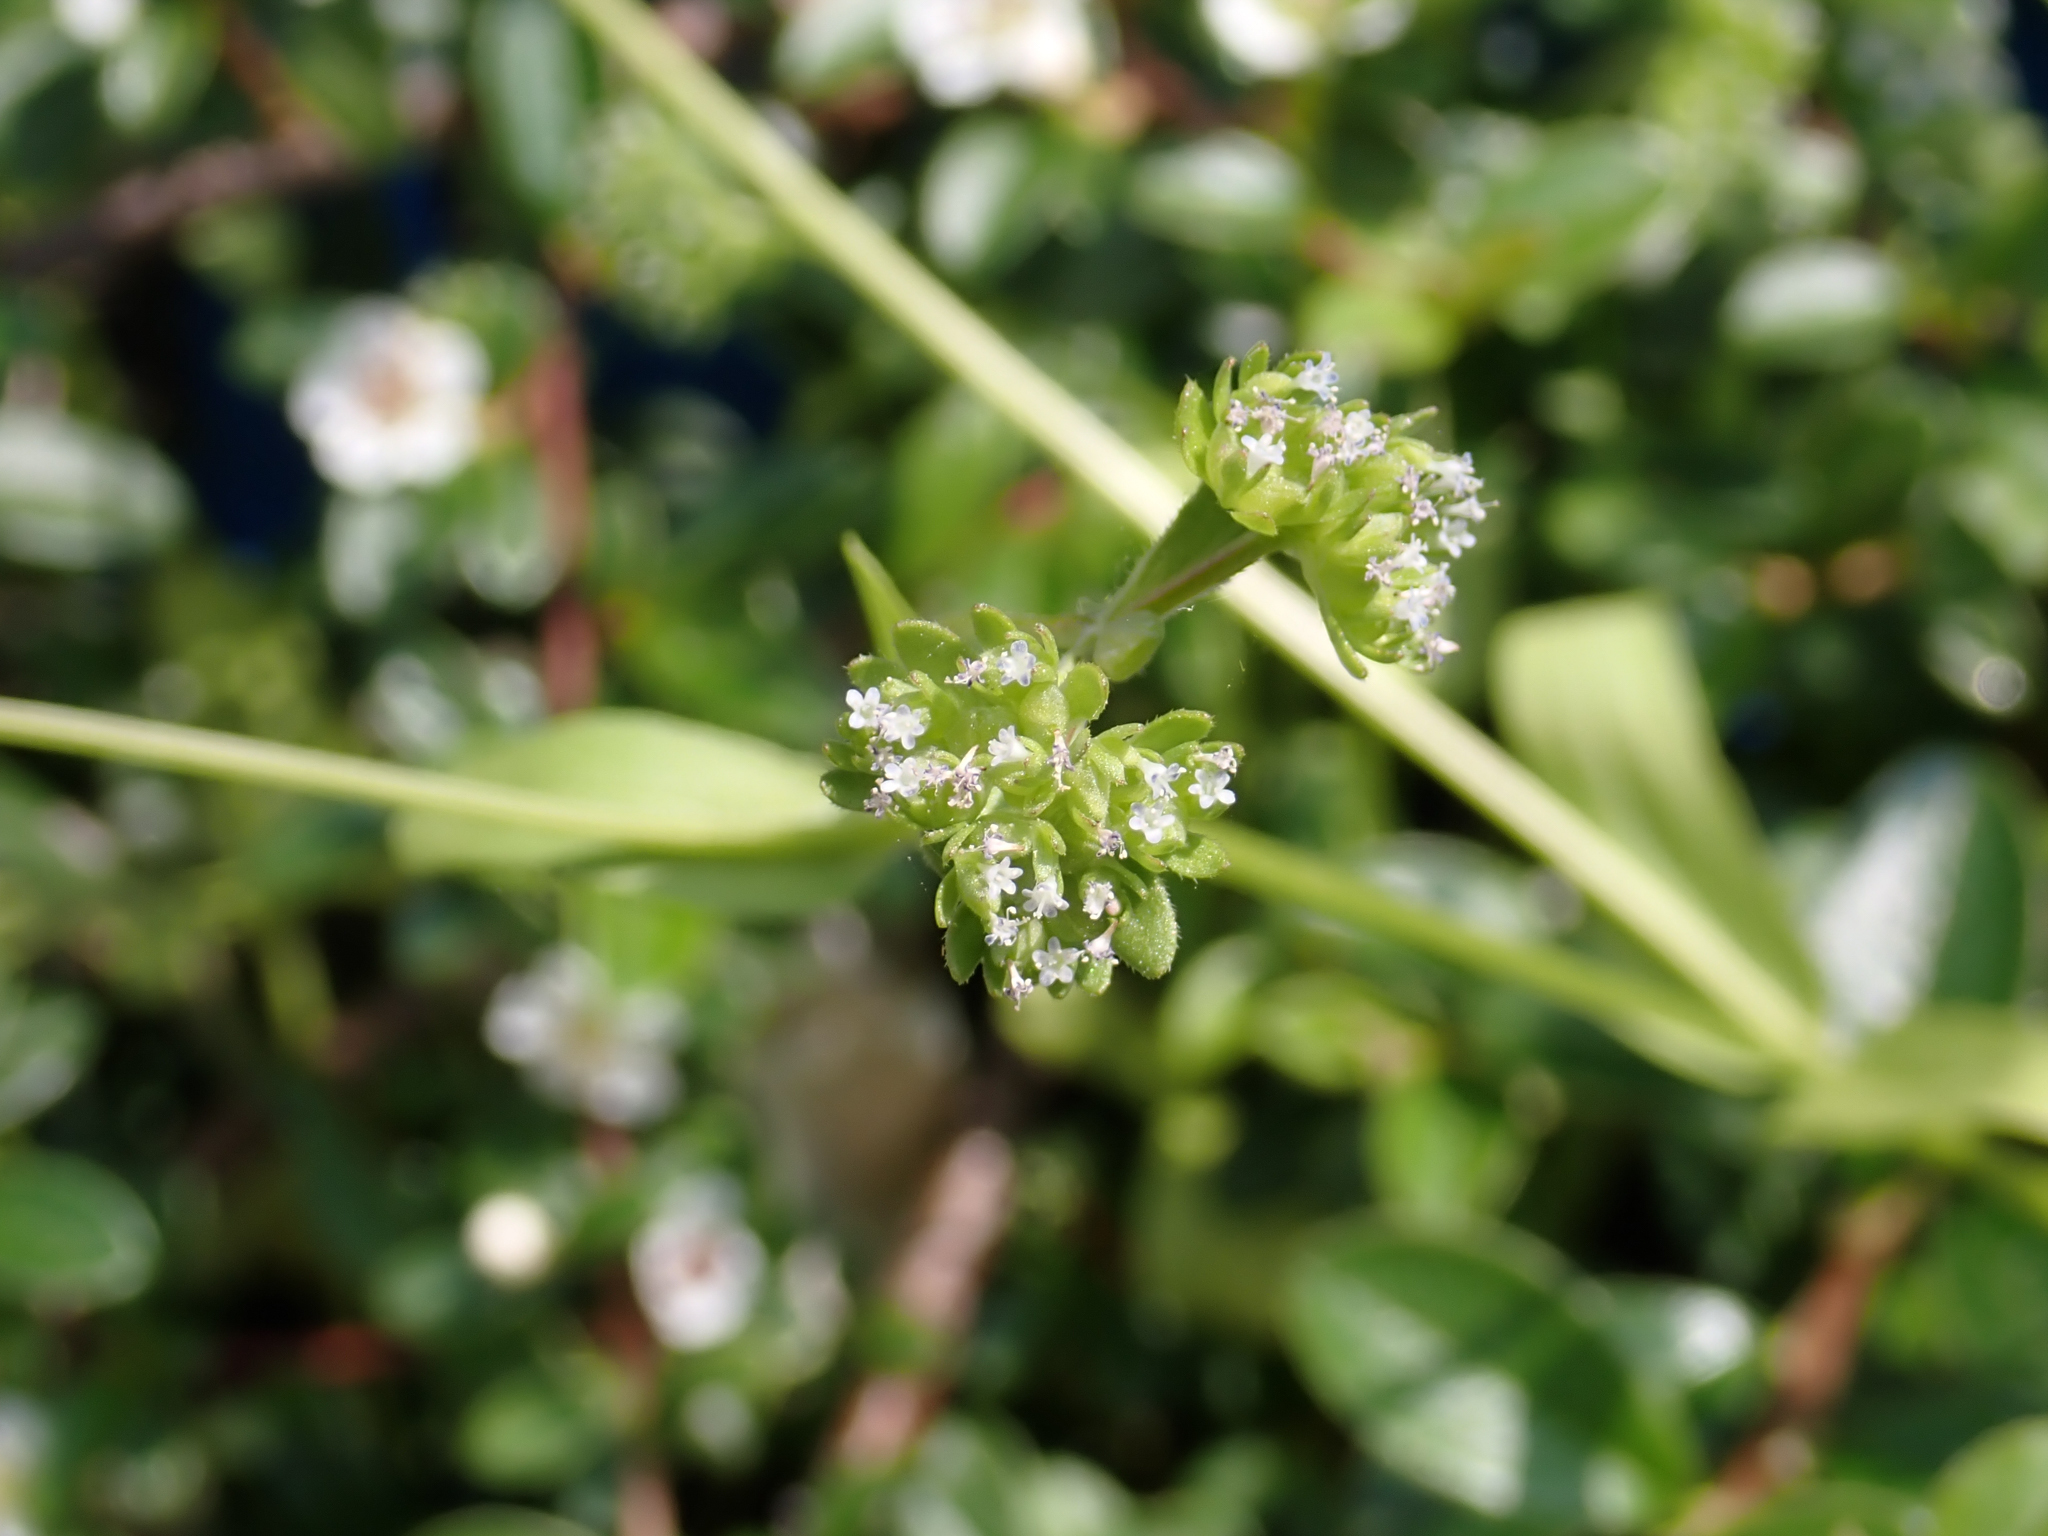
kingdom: Plantae
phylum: Tracheophyta
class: Magnoliopsida
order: Dipsacales
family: Caprifoliaceae
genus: Valerianella
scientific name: Valerianella locusta
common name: Common cornsalad
